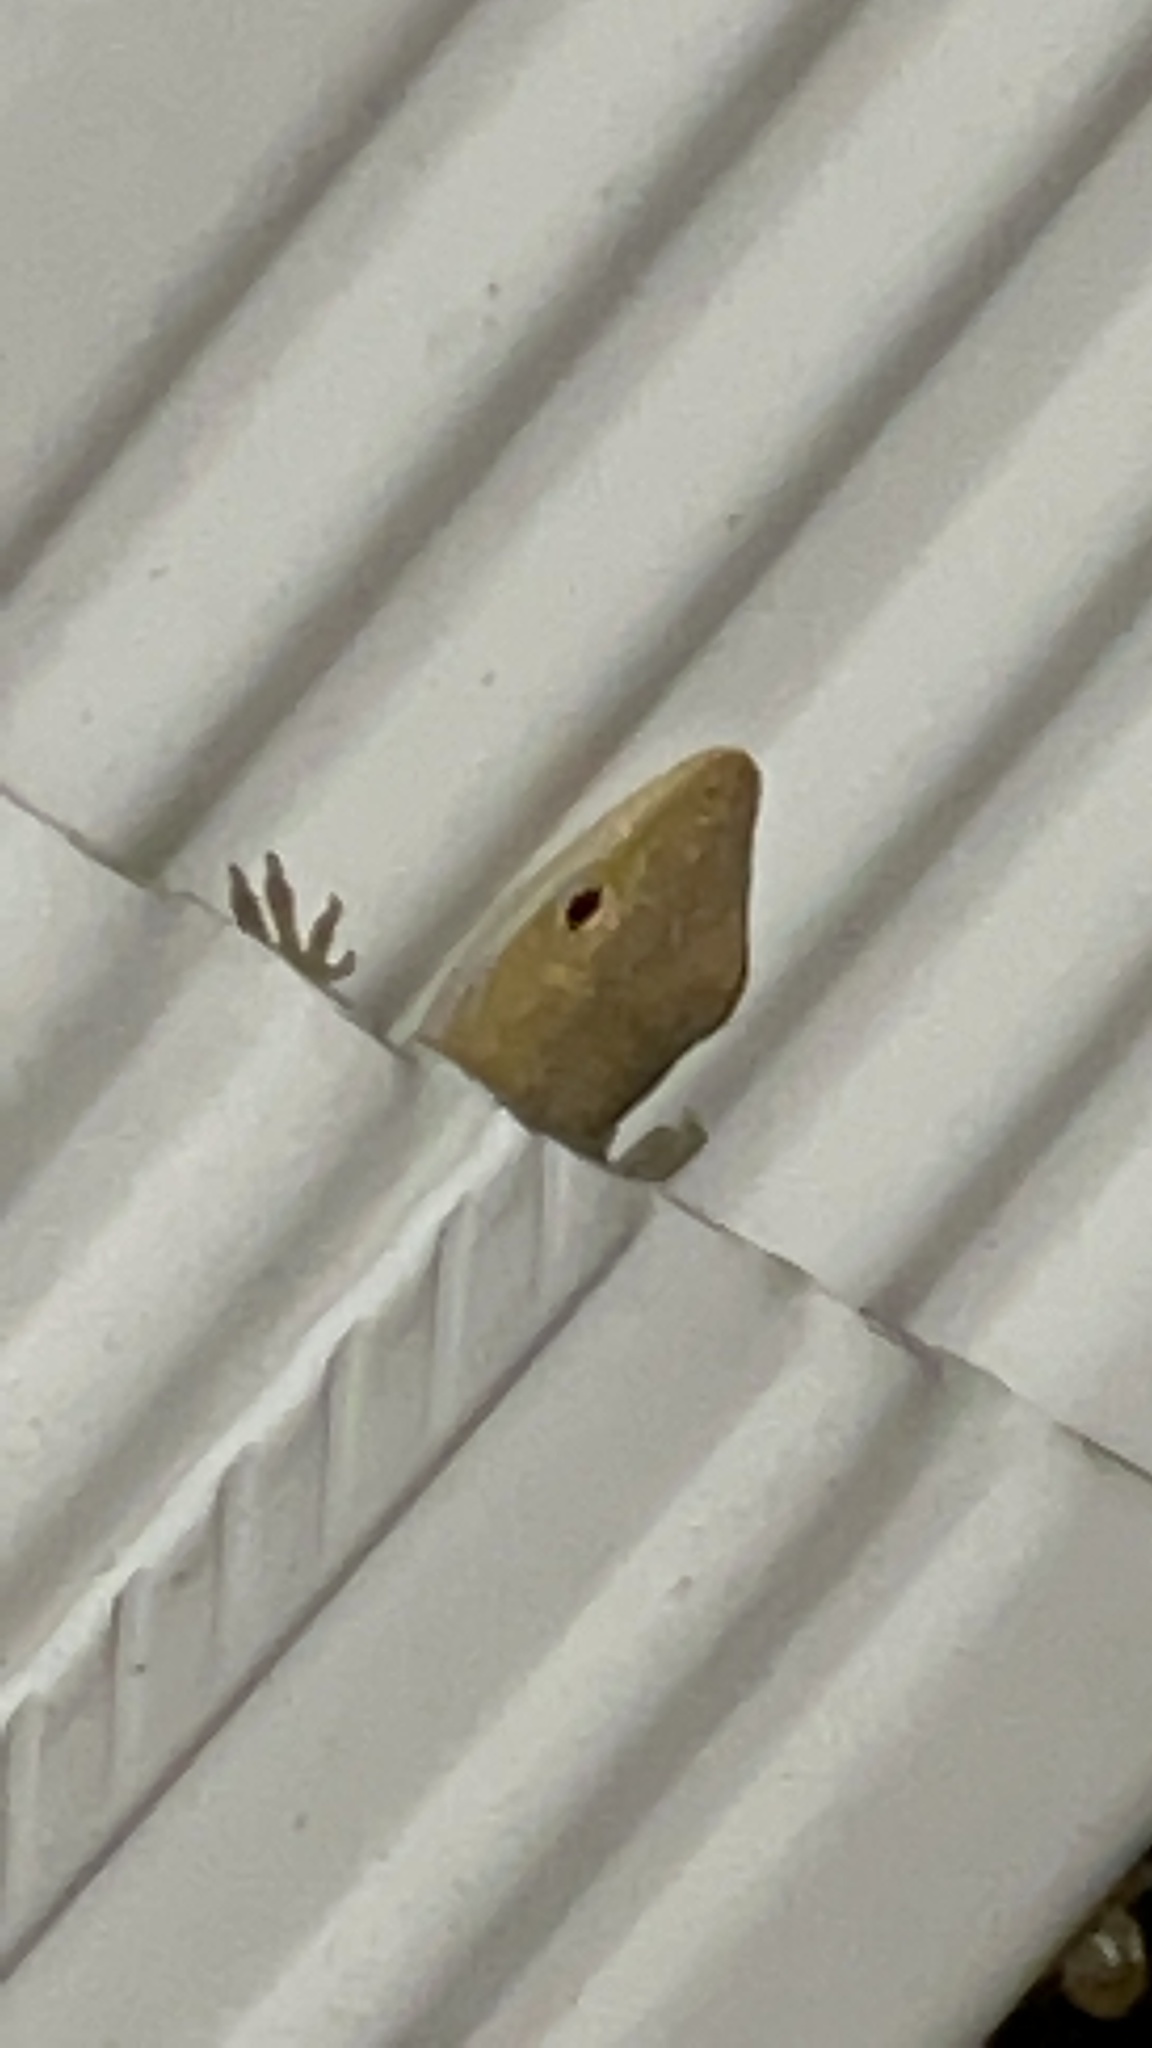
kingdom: Animalia
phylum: Chordata
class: Squamata
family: Dactyloidae
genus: Anolis
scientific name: Anolis carolinensis
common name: Green anole
